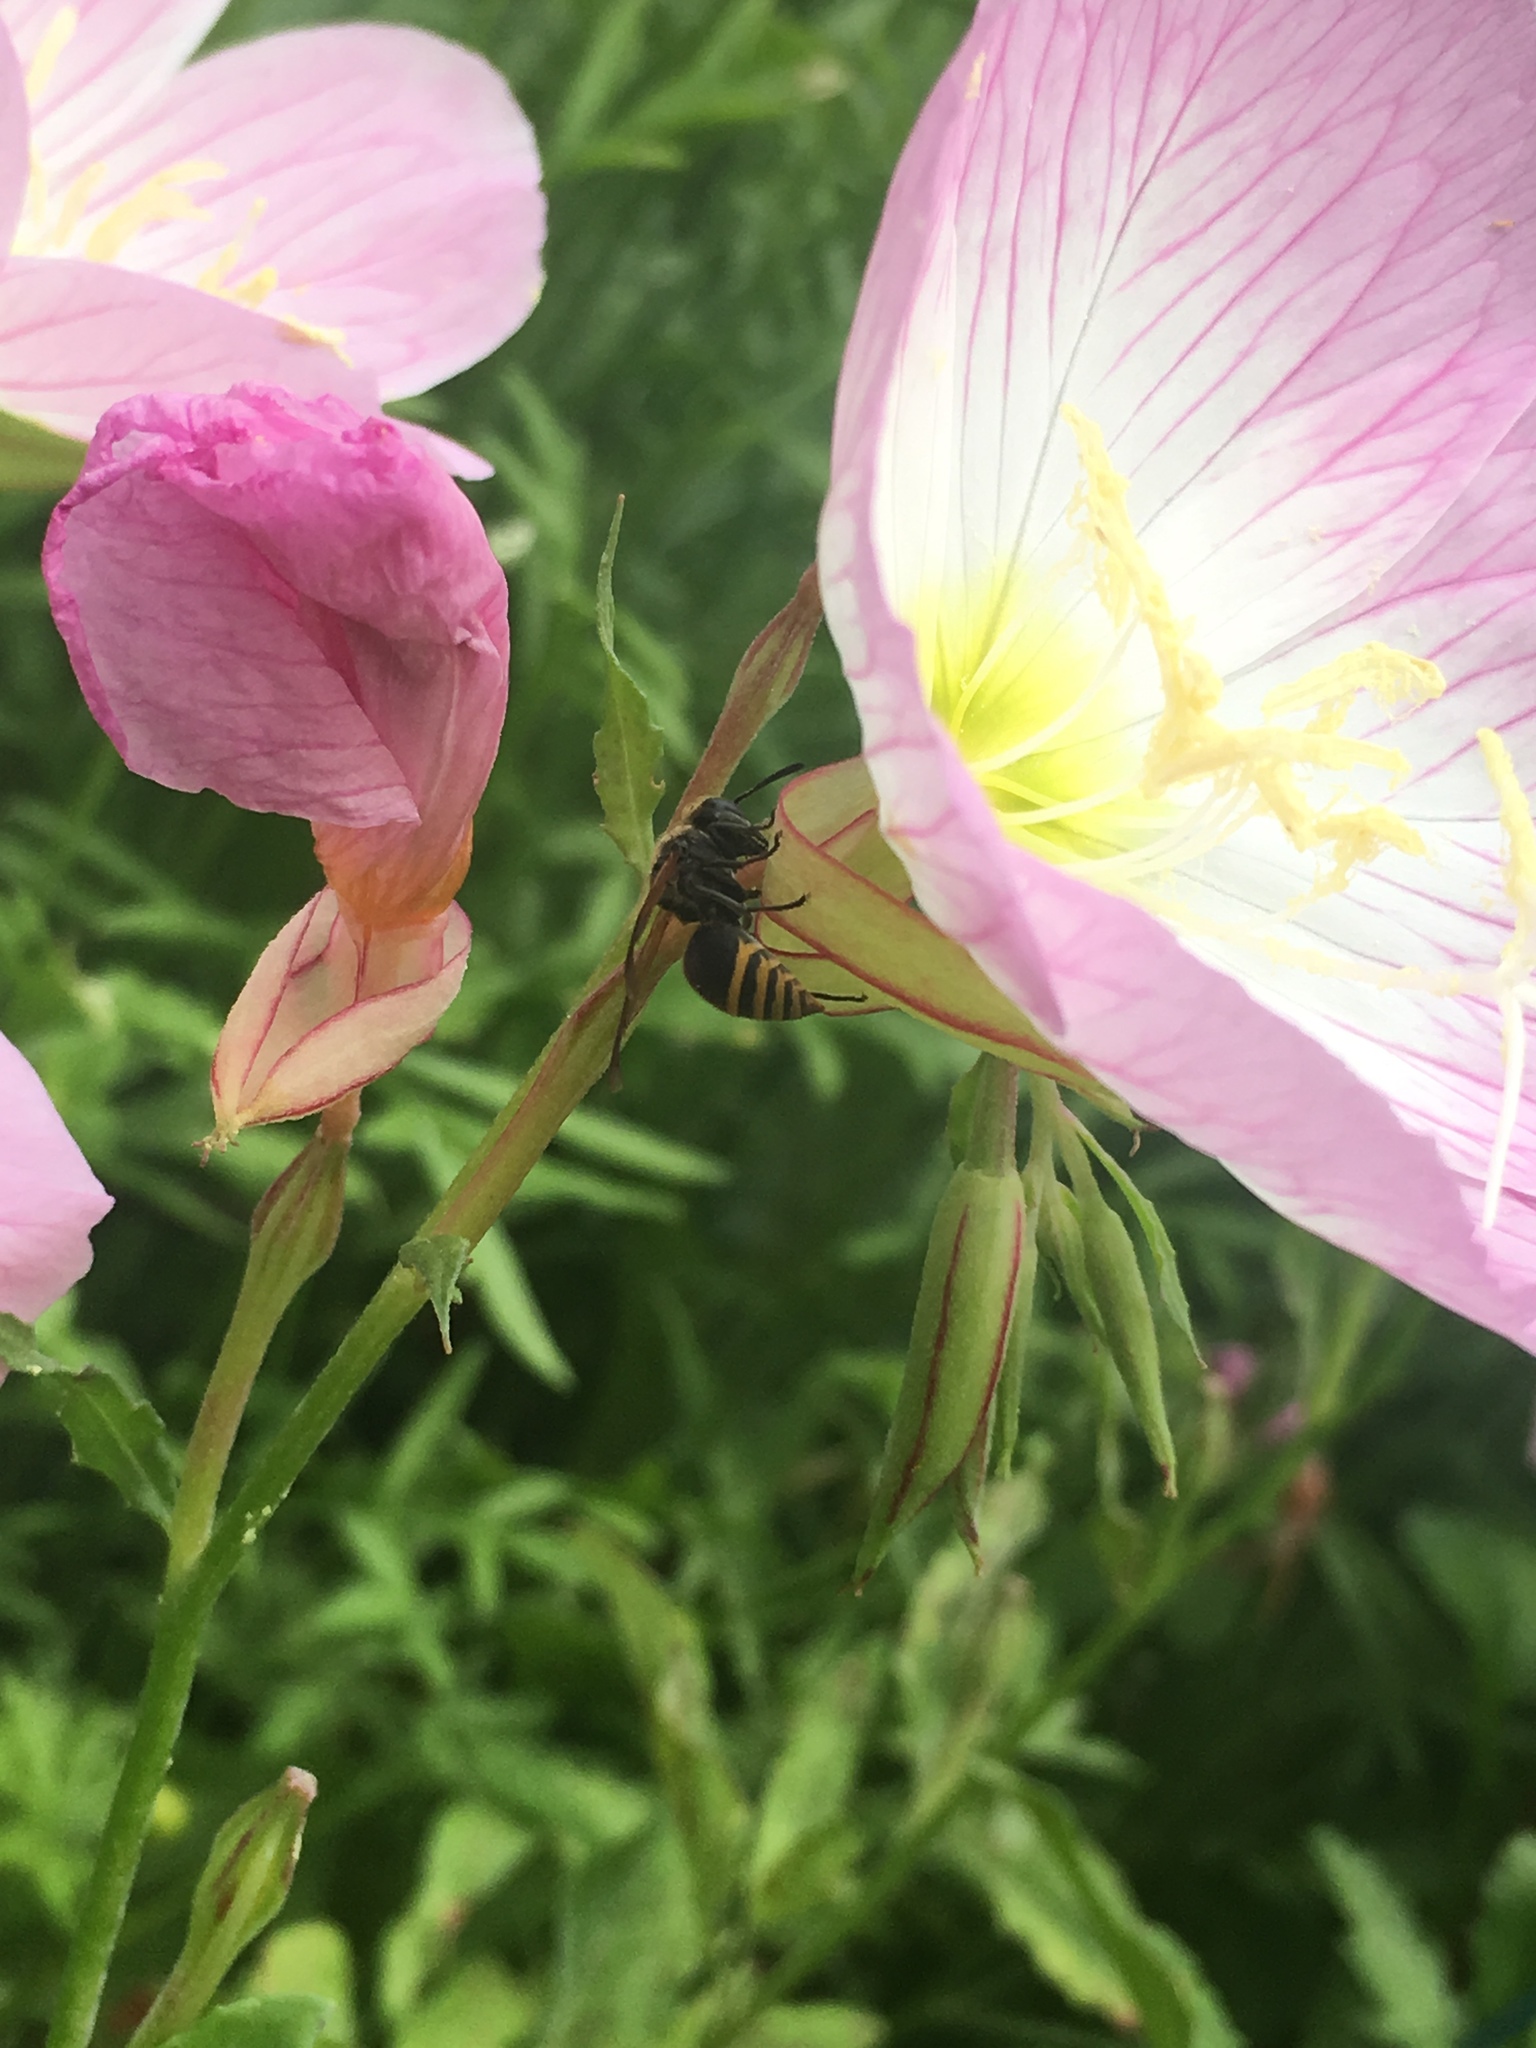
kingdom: Animalia
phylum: Arthropoda
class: Insecta
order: Hymenoptera
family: Vespidae
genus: Brachygastra
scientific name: Brachygastra mellifica
